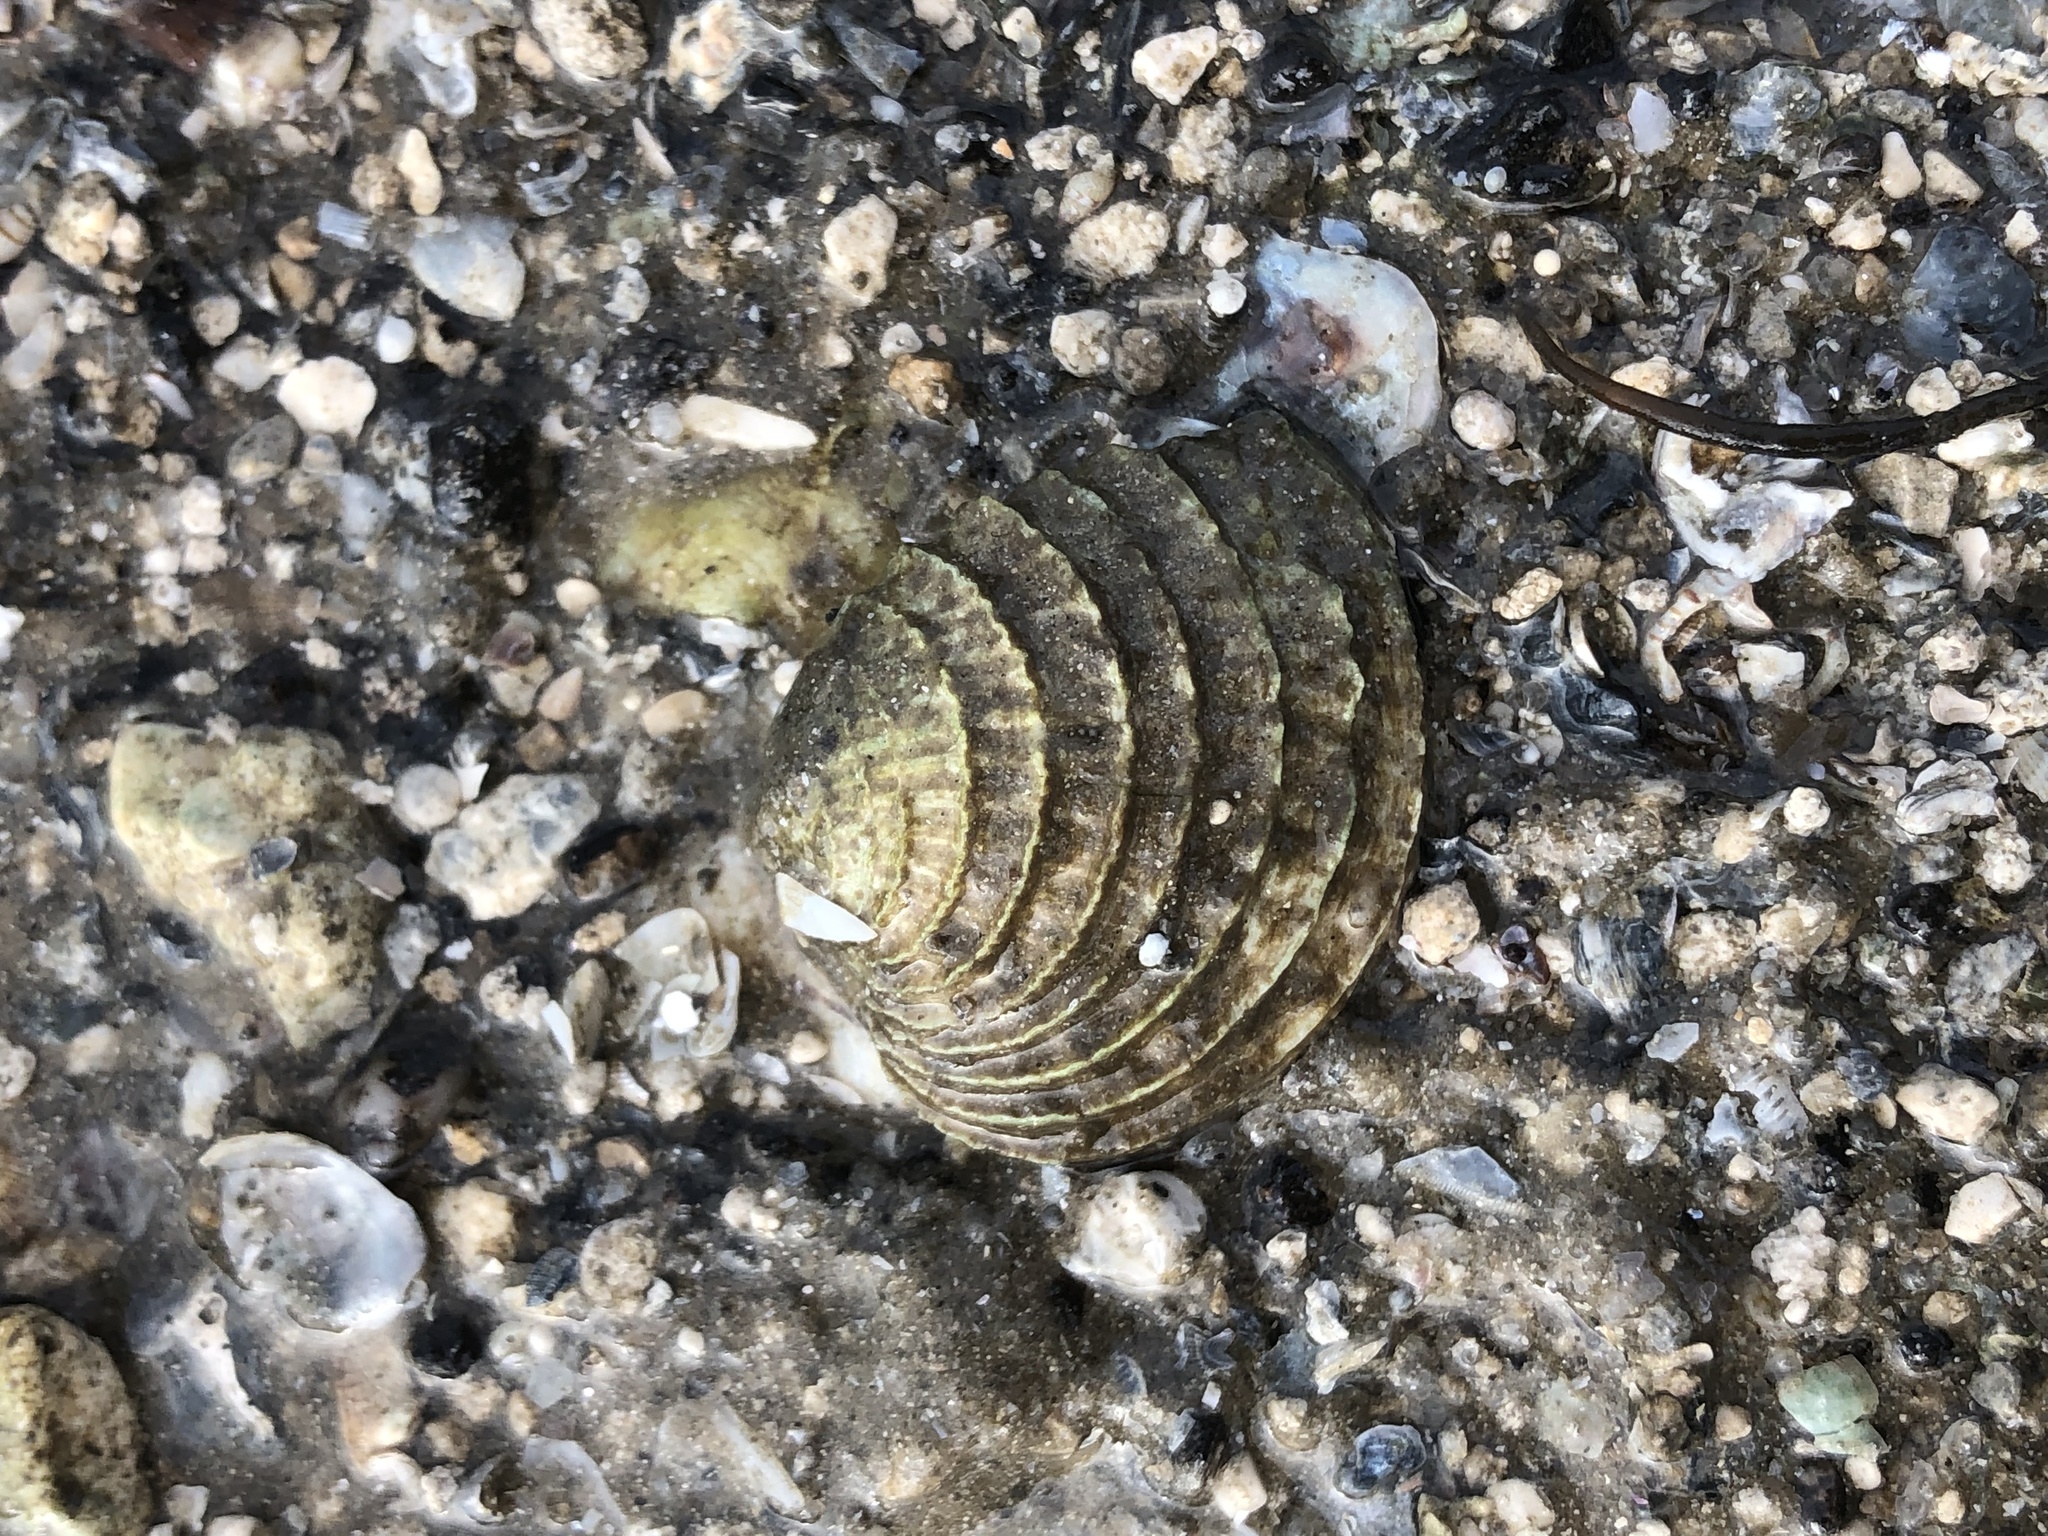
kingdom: Animalia
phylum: Mollusca
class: Bivalvia
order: Venerida
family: Veneridae
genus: Chione
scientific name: Chione elevata
